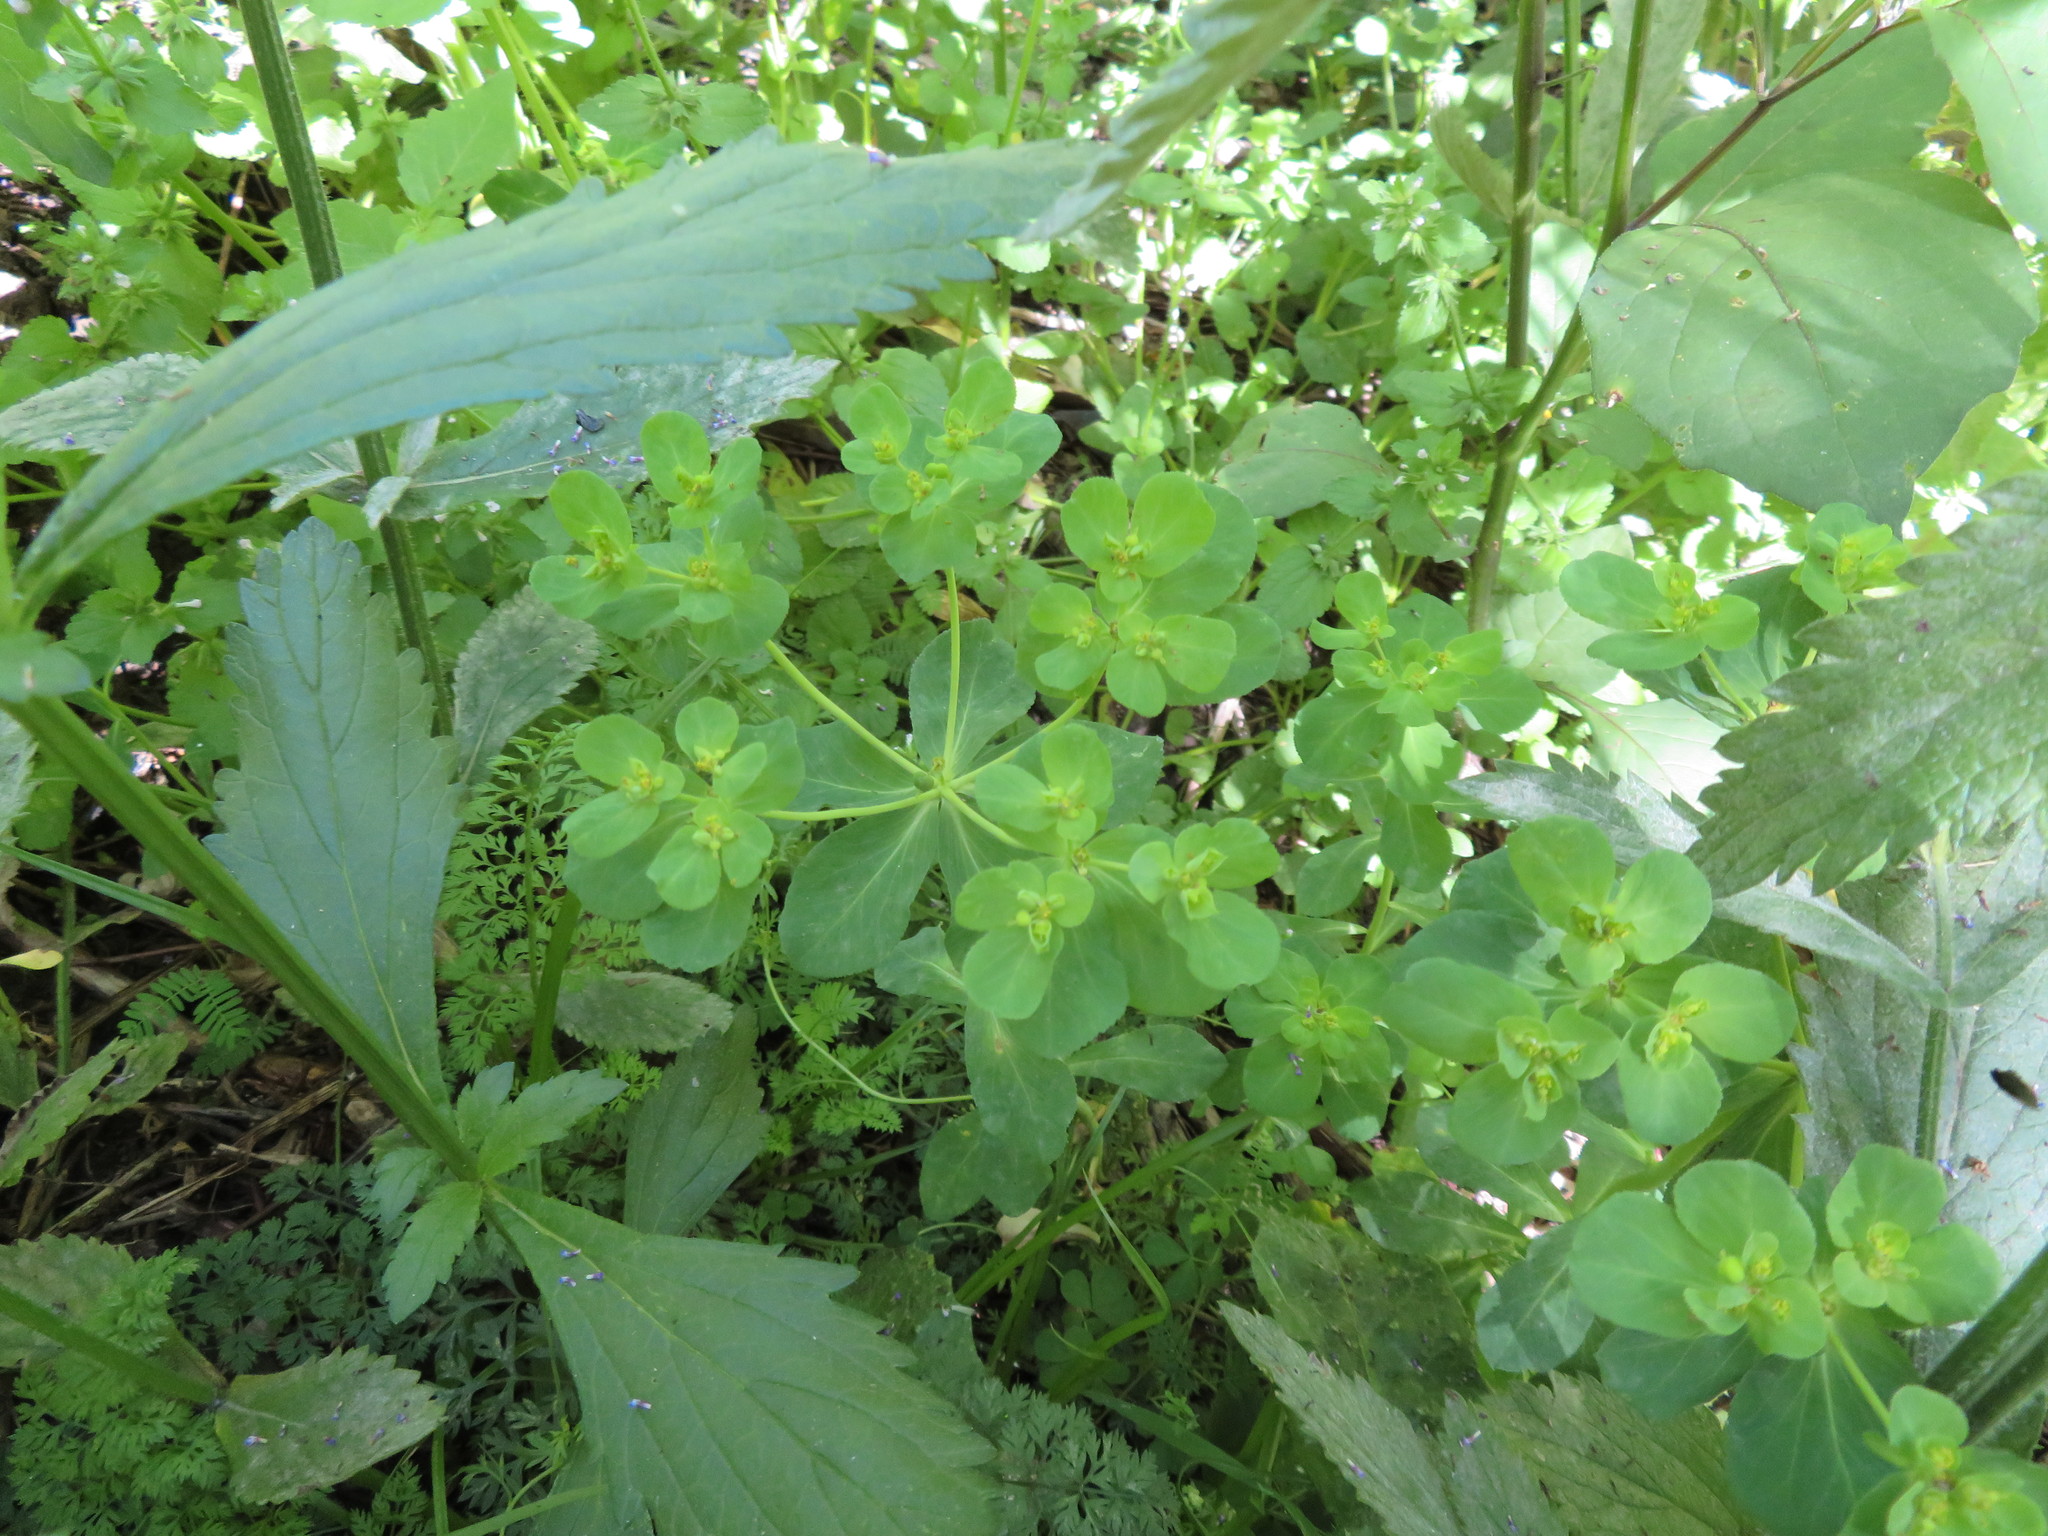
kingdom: Plantae
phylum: Tracheophyta
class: Magnoliopsida
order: Malpighiales
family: Euphorbiaceae
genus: Euphorbia
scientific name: Euphorbia helioscopia
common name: Sun spurge
